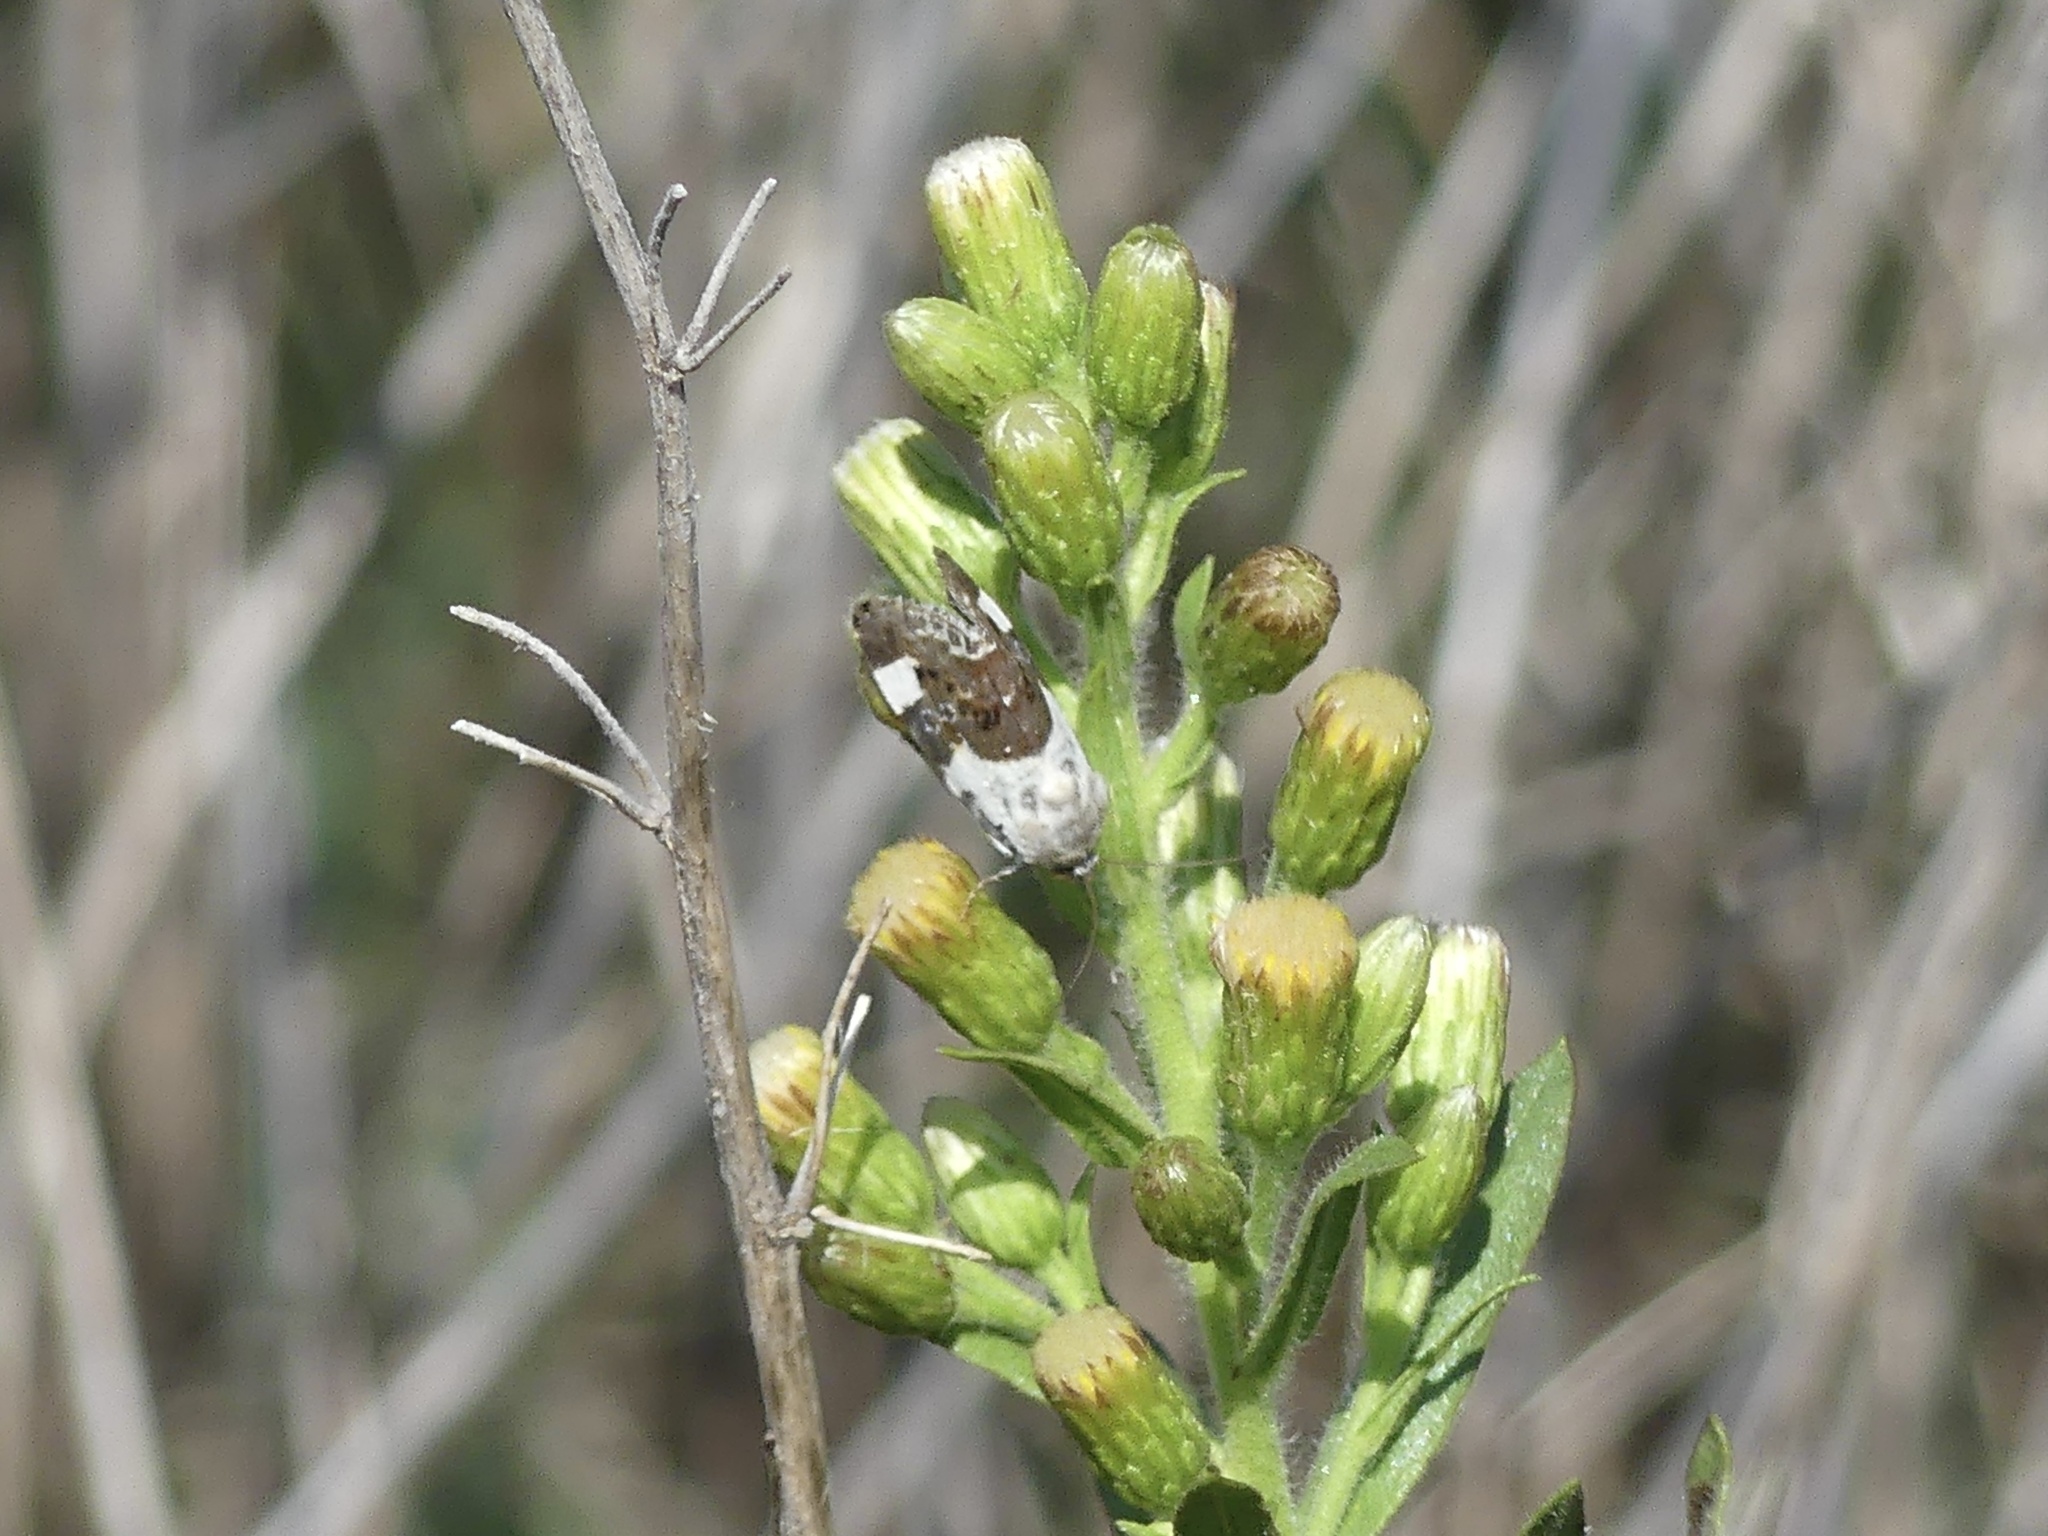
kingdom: Animalia
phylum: Arthropoda
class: Insecta
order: Lepidoptera
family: Noctuidae
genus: Acontia
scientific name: Acontia lucida
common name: Pale shoulder
